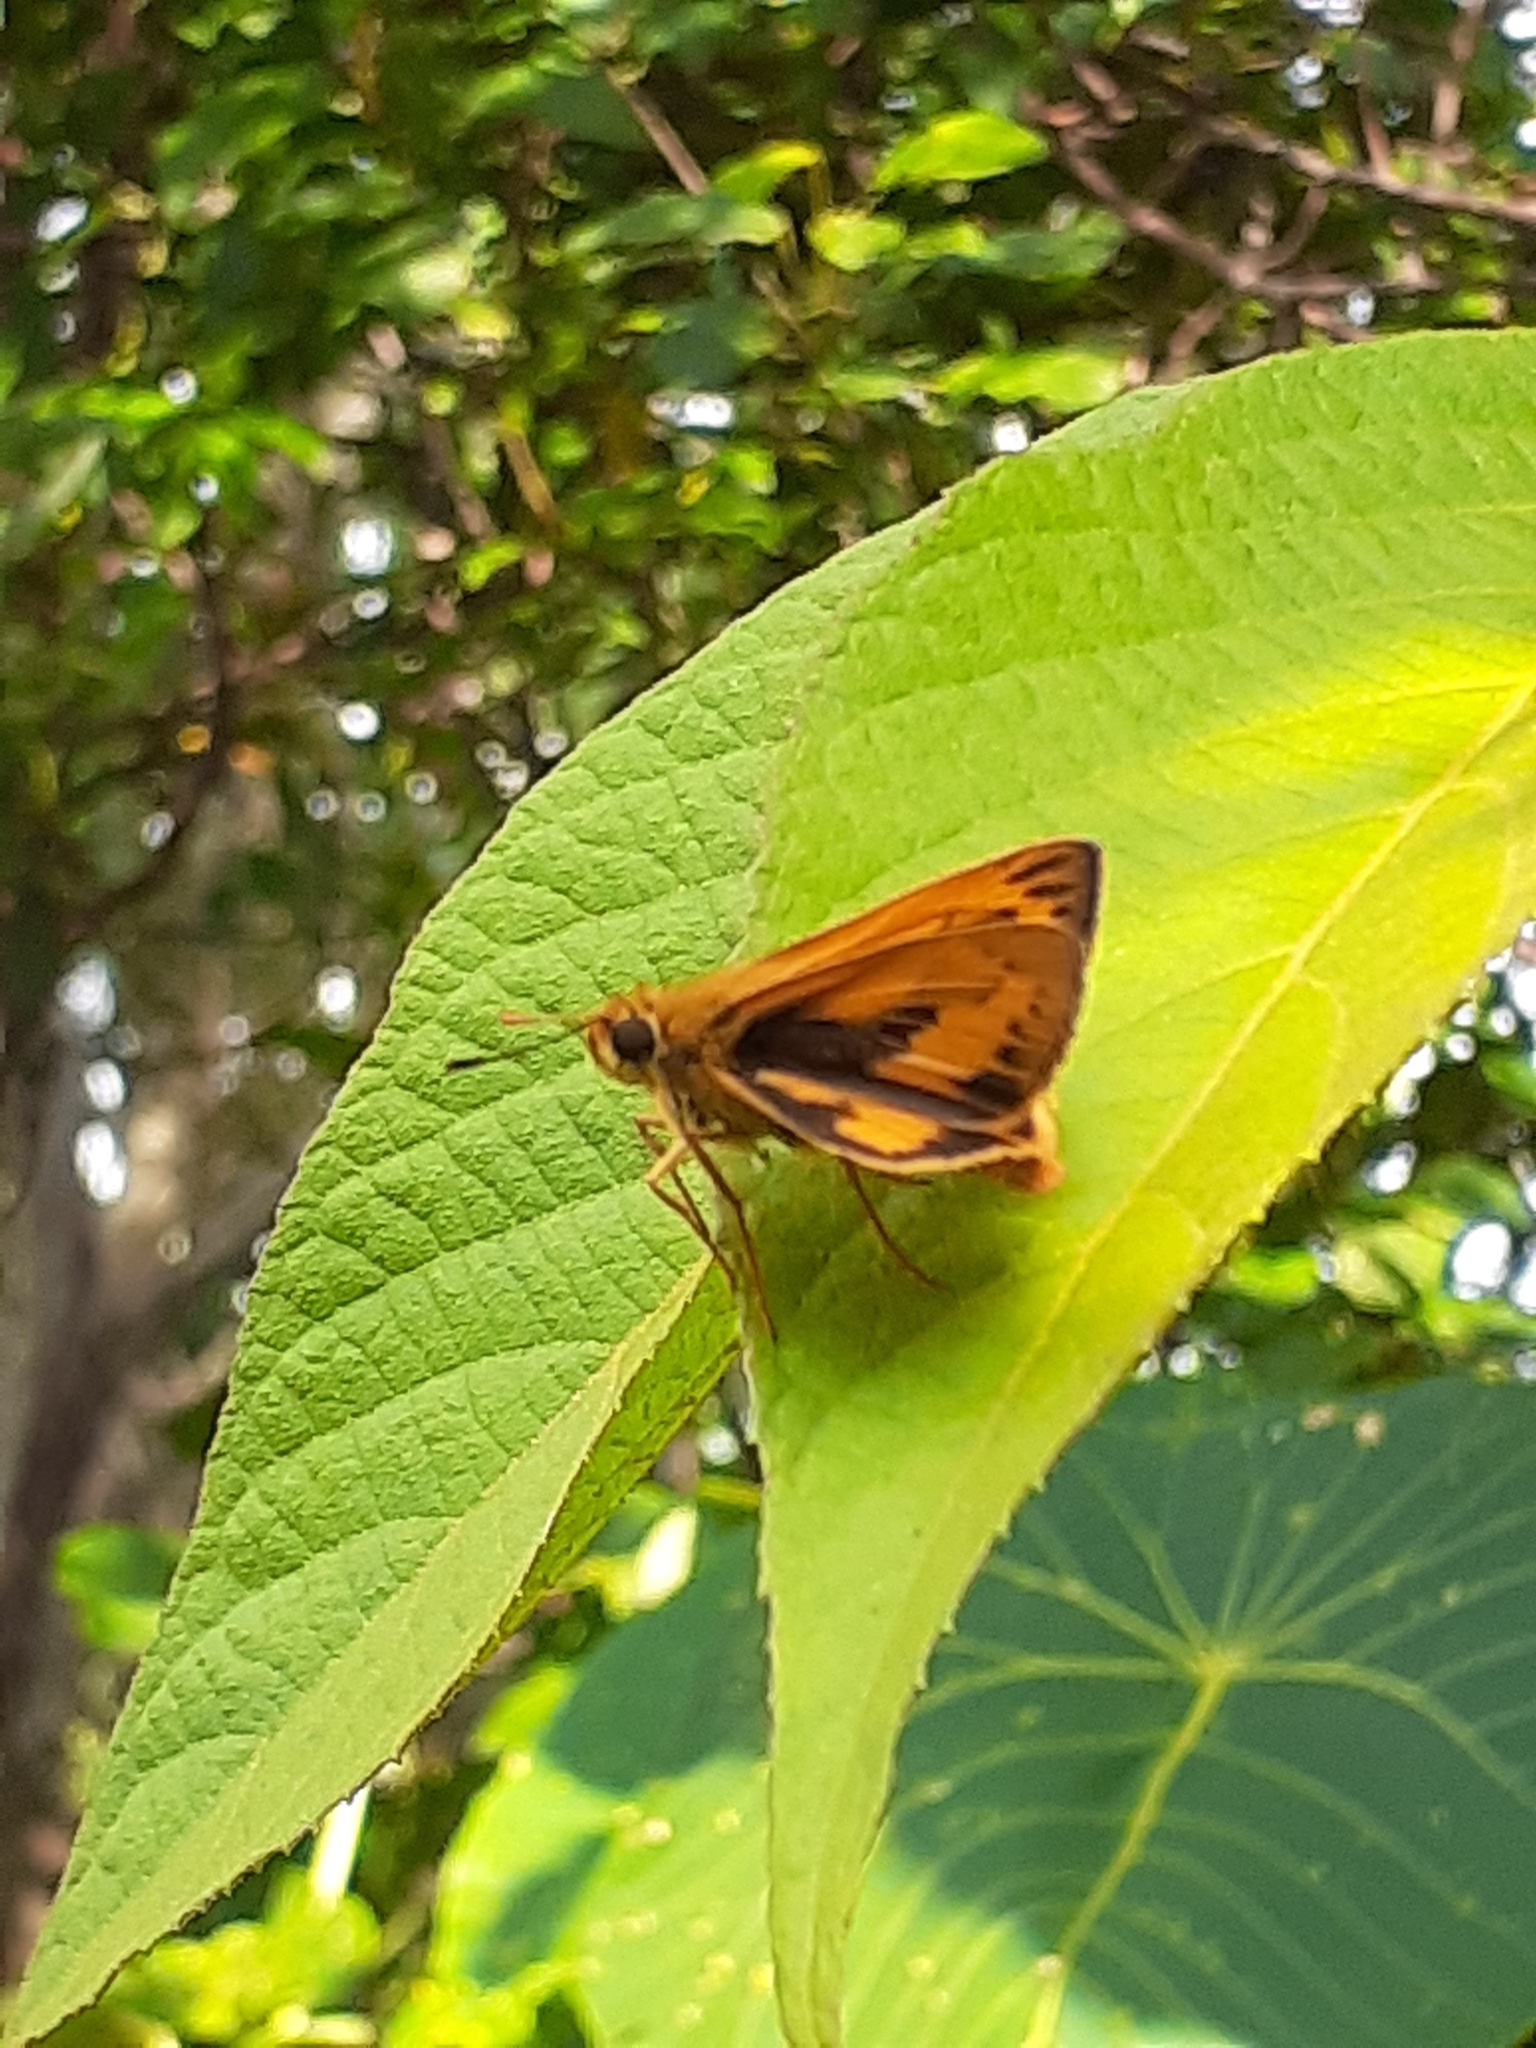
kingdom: Animalia
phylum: Arthropoda
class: Insecta
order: Lepidoptera
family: Hesperiidae
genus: Telicota
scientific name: Telicota bambusae
